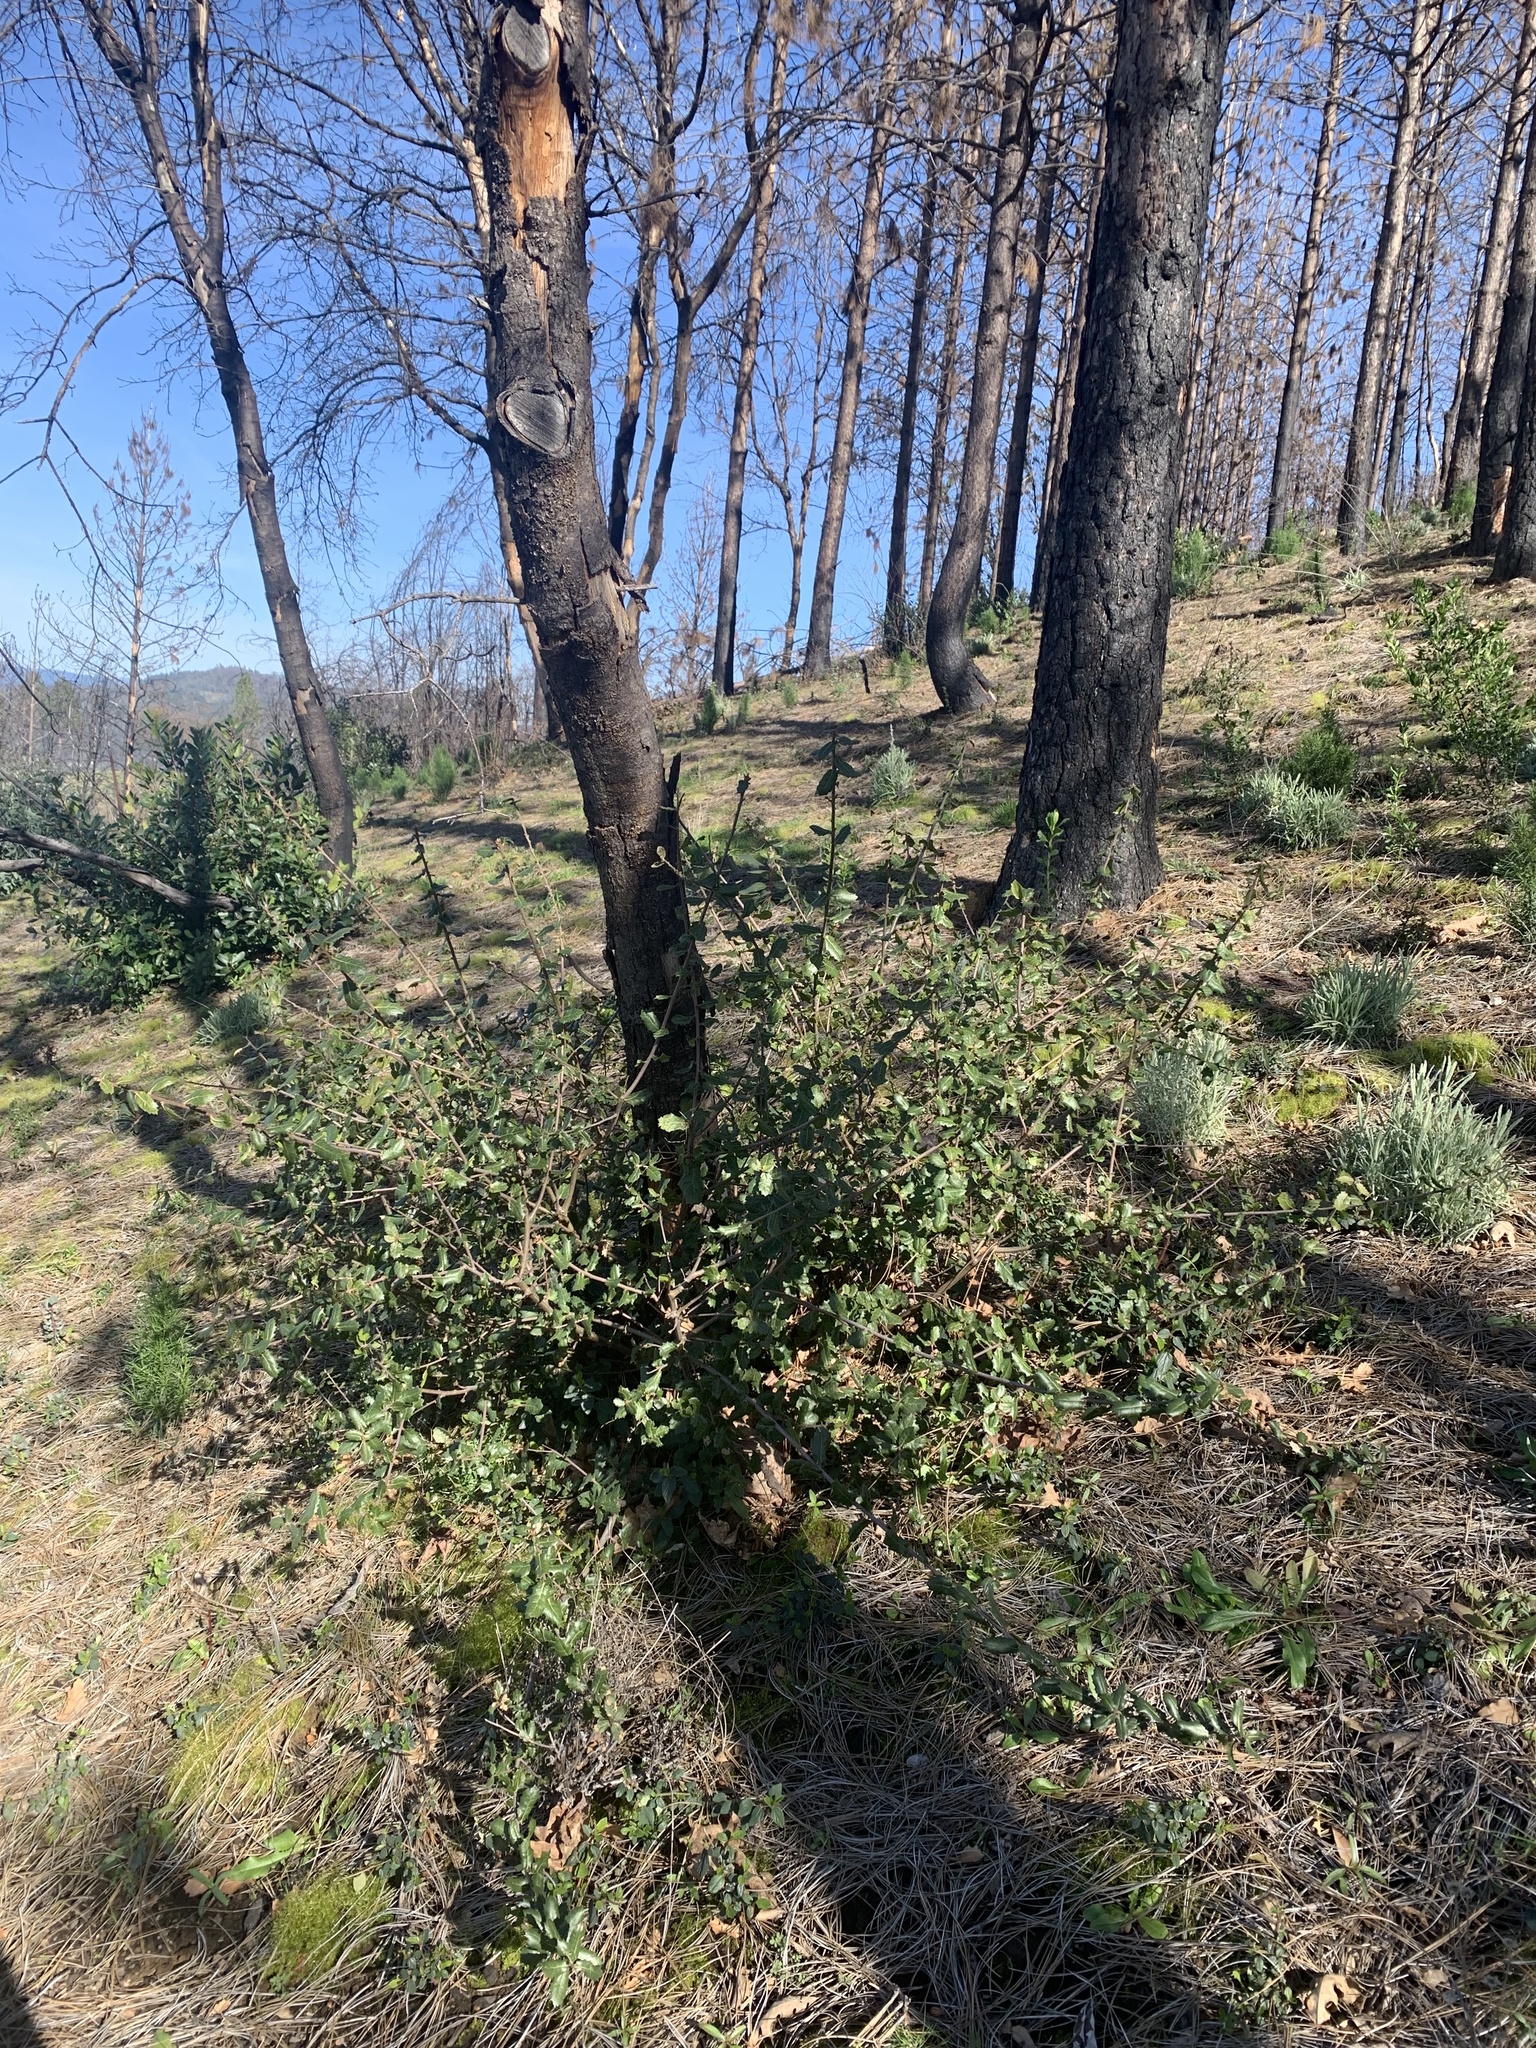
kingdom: Plantae
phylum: Tracheophyta
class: Magnoliopsida
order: Fagales
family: Fagaceae
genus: Quercus
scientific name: Quercus wislizeni
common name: Interior live oak
